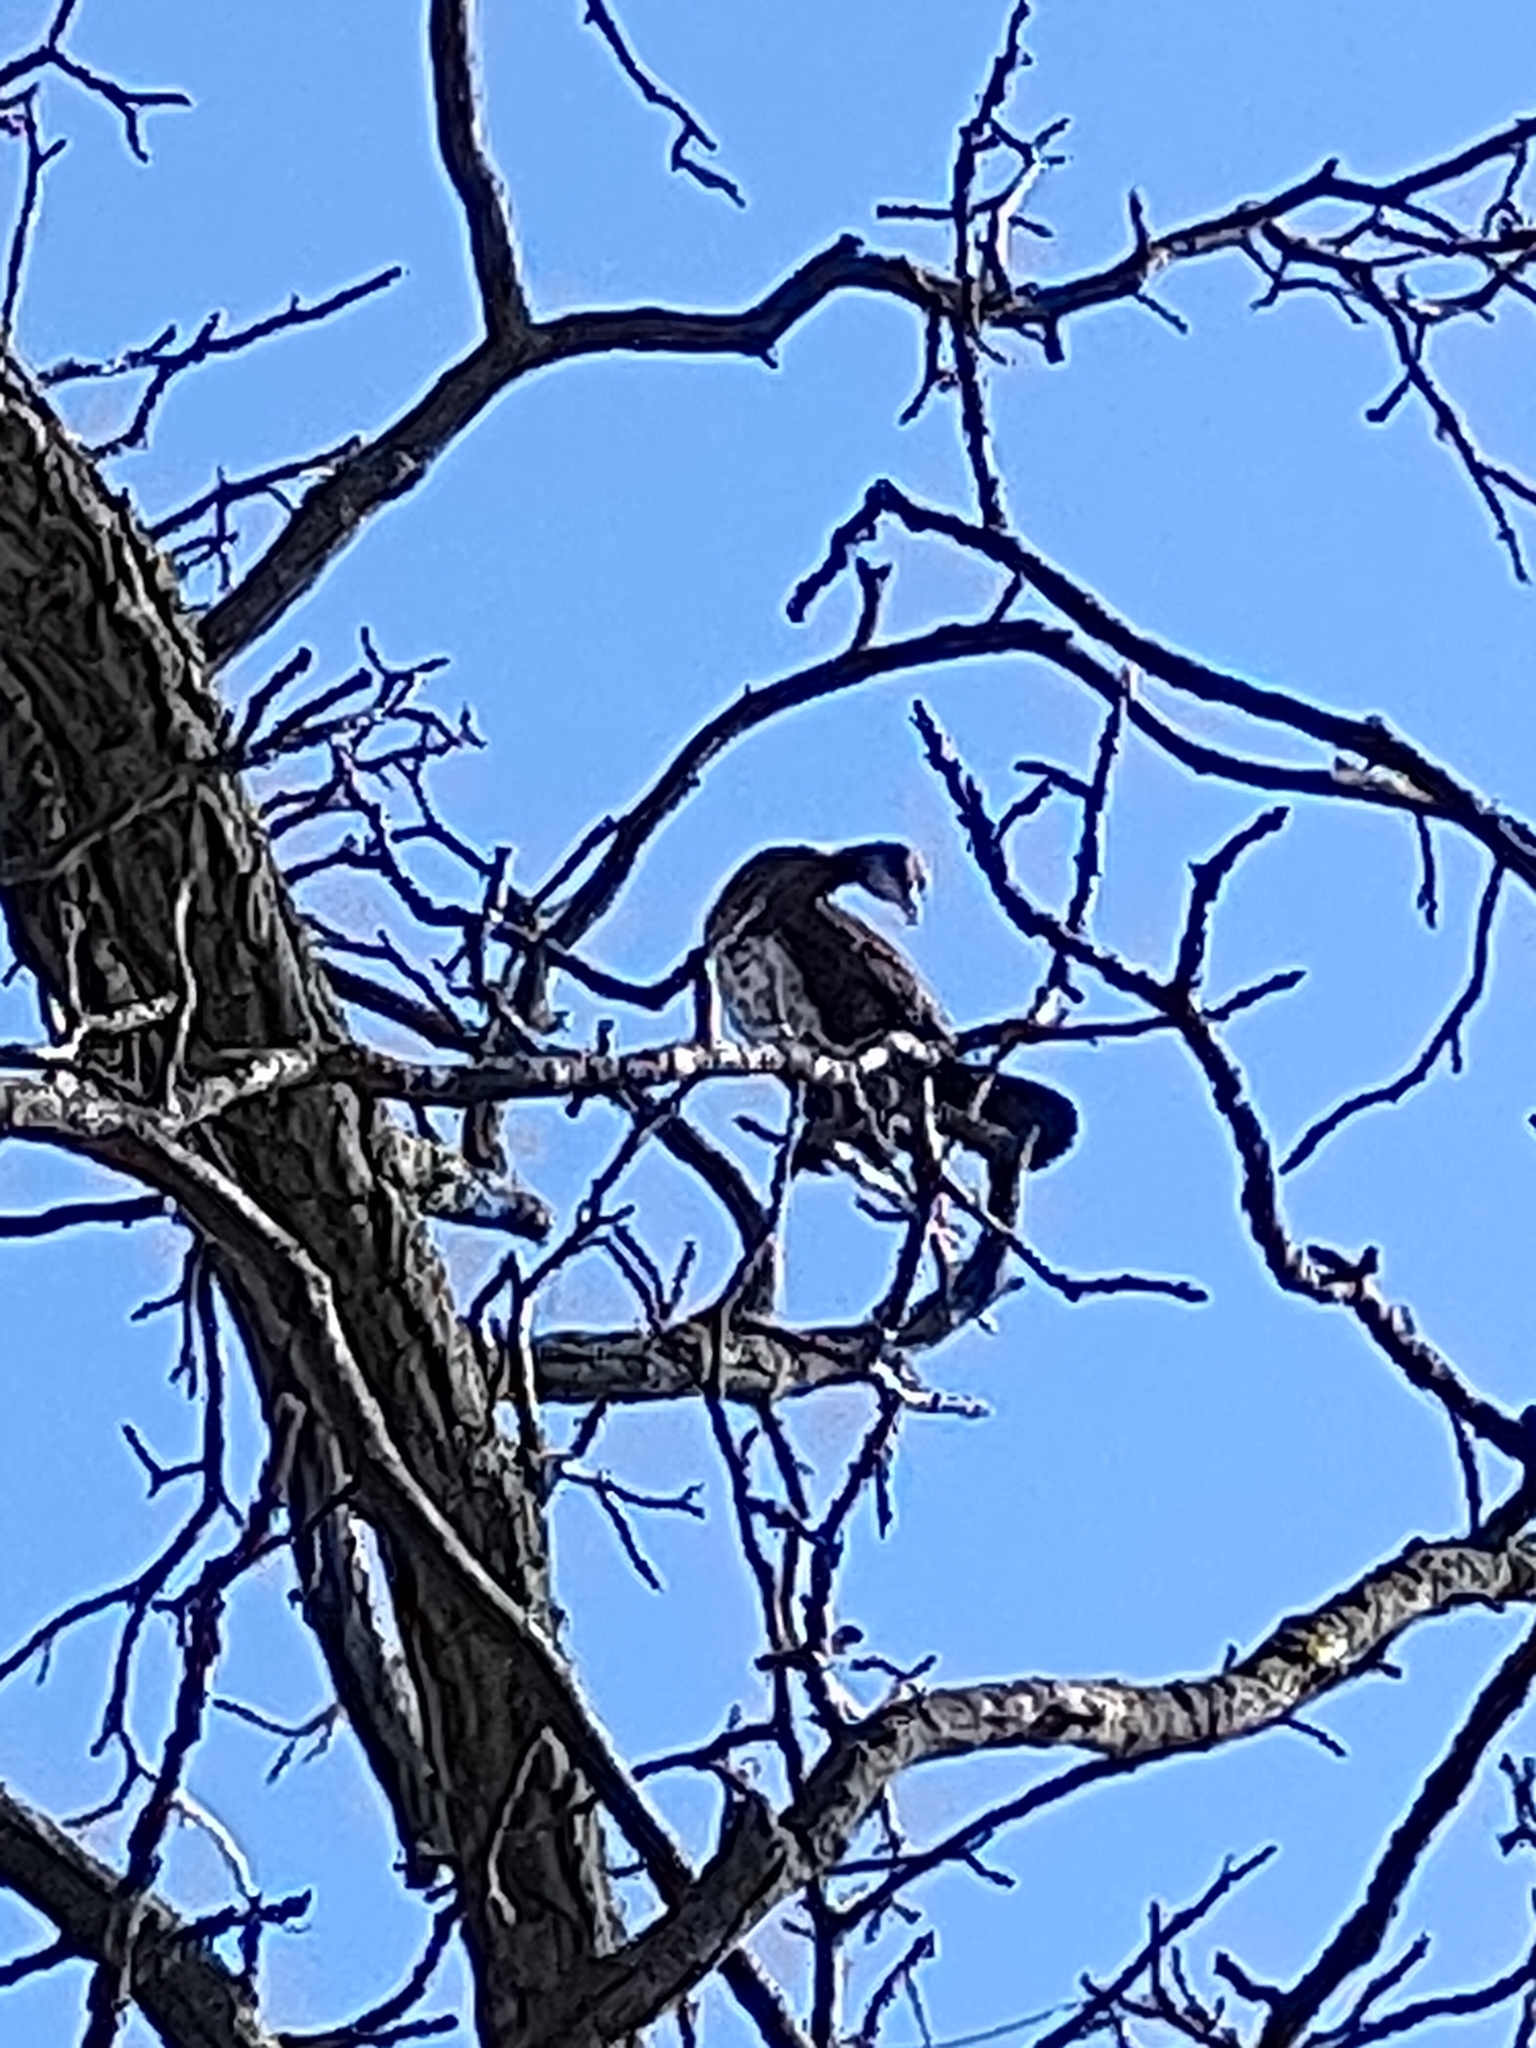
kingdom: Animalia
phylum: Chordata
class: Aves
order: Suliformes
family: Phalacrocoracidae
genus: Phalacrocorax
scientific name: Phalacrocorax carbo
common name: Great cormorant
